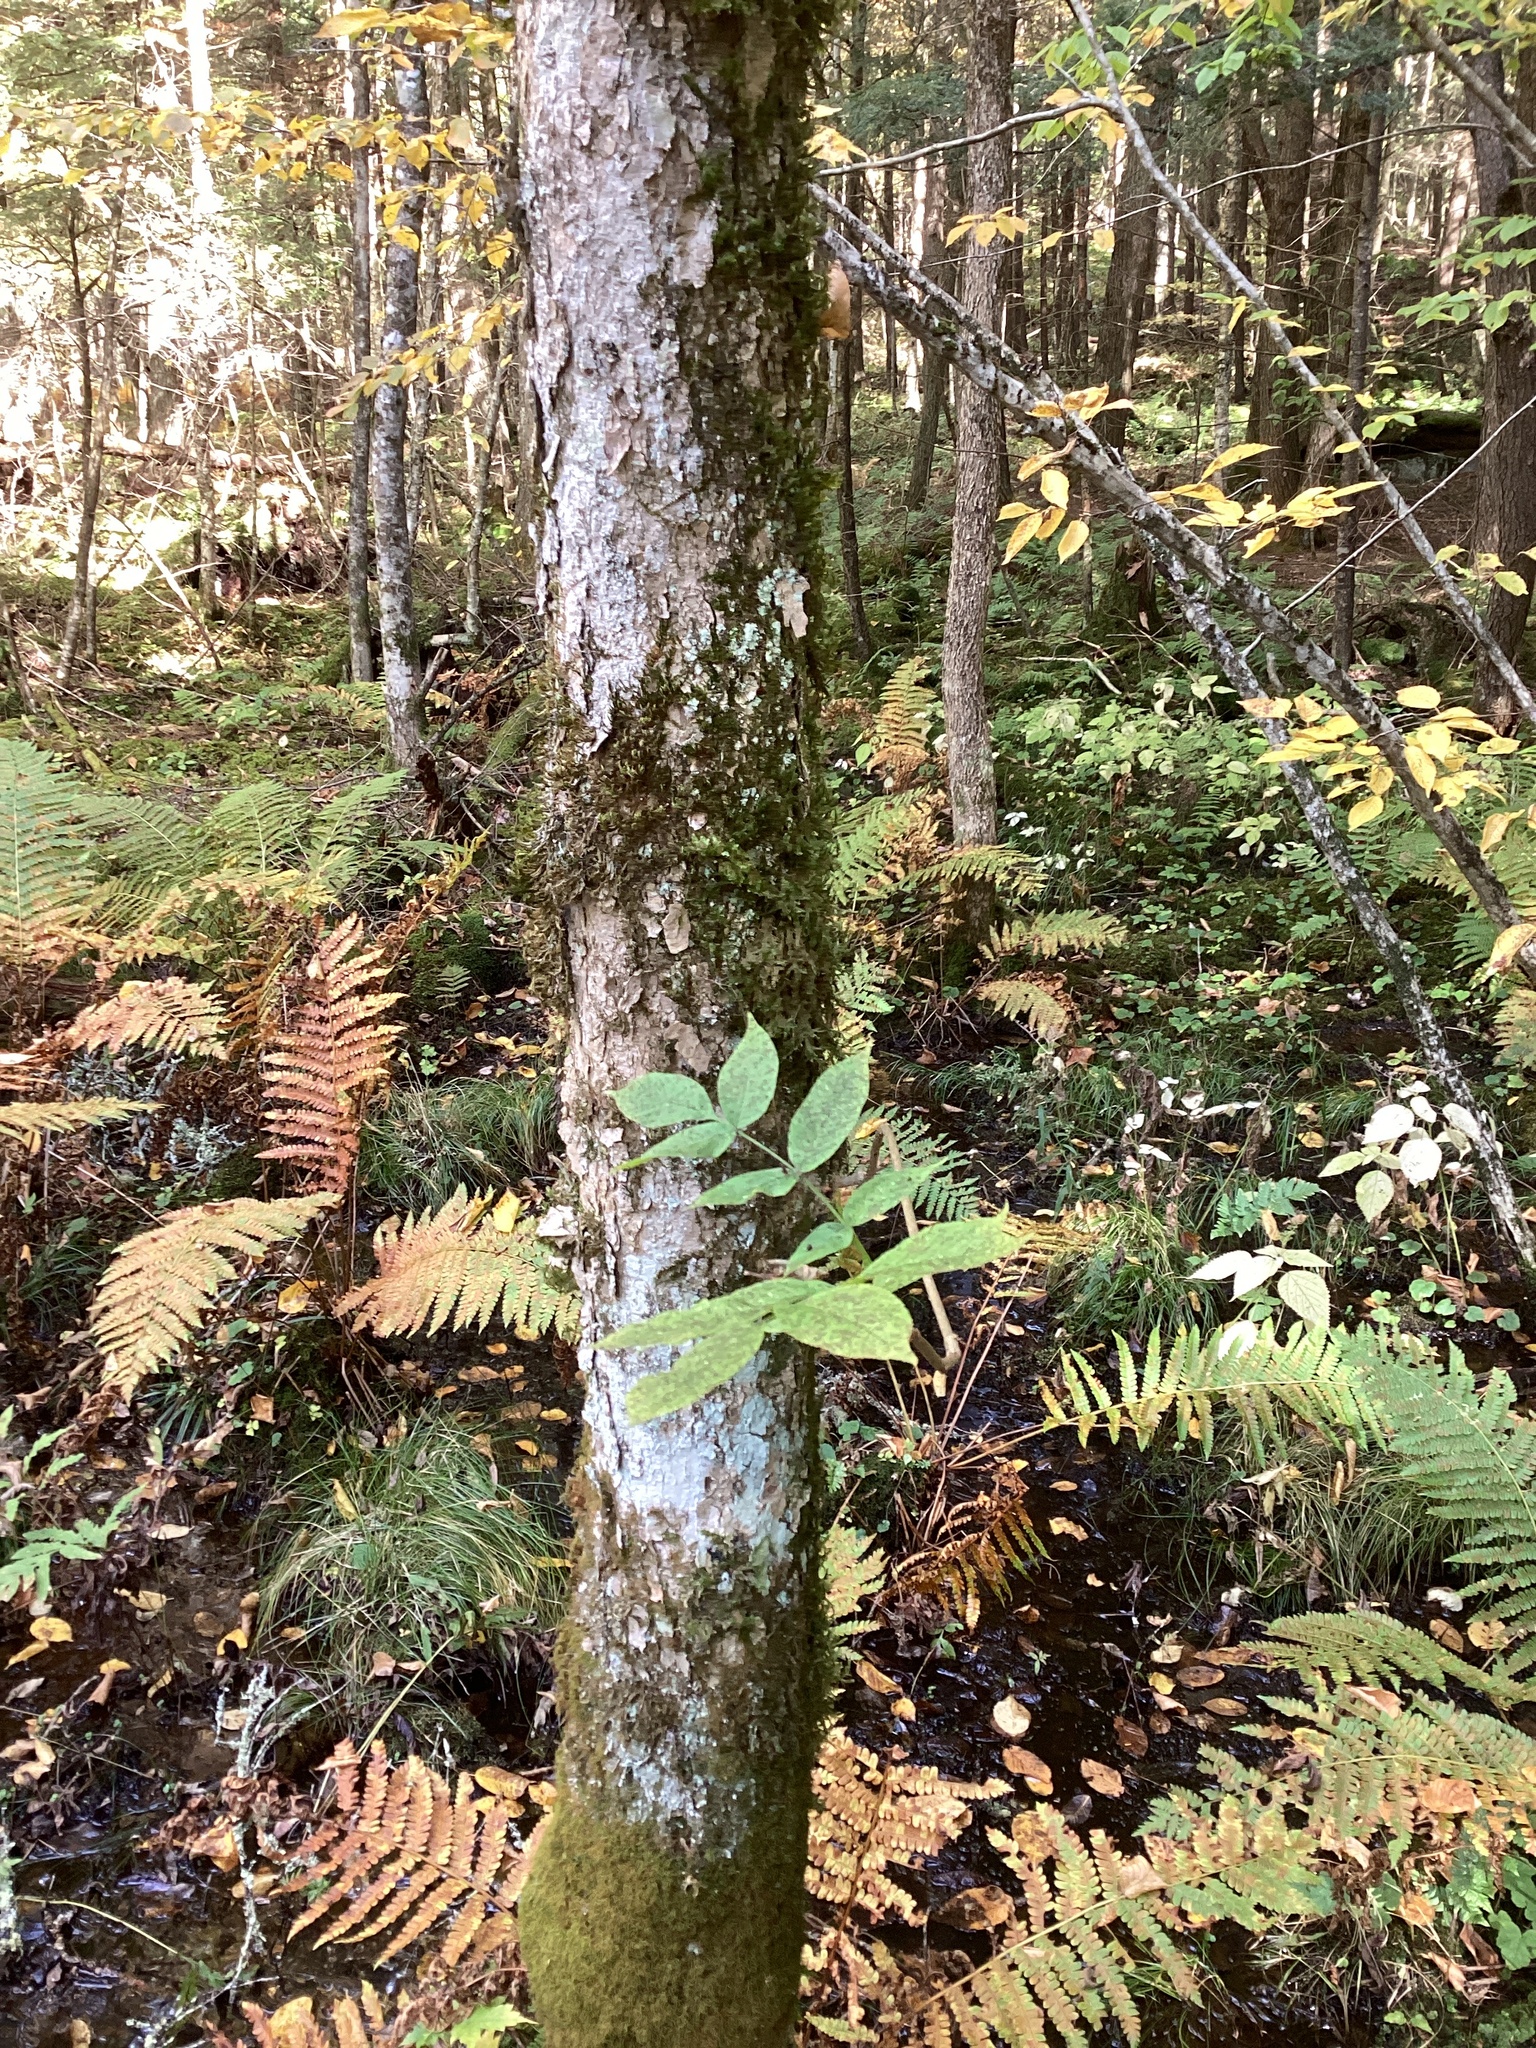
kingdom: Plantae
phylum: Tracheophyta
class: Magnoliopsida
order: Lamiales
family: Oleaceae
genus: Fraxinus
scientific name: Fraxinus nigra
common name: Black ash
